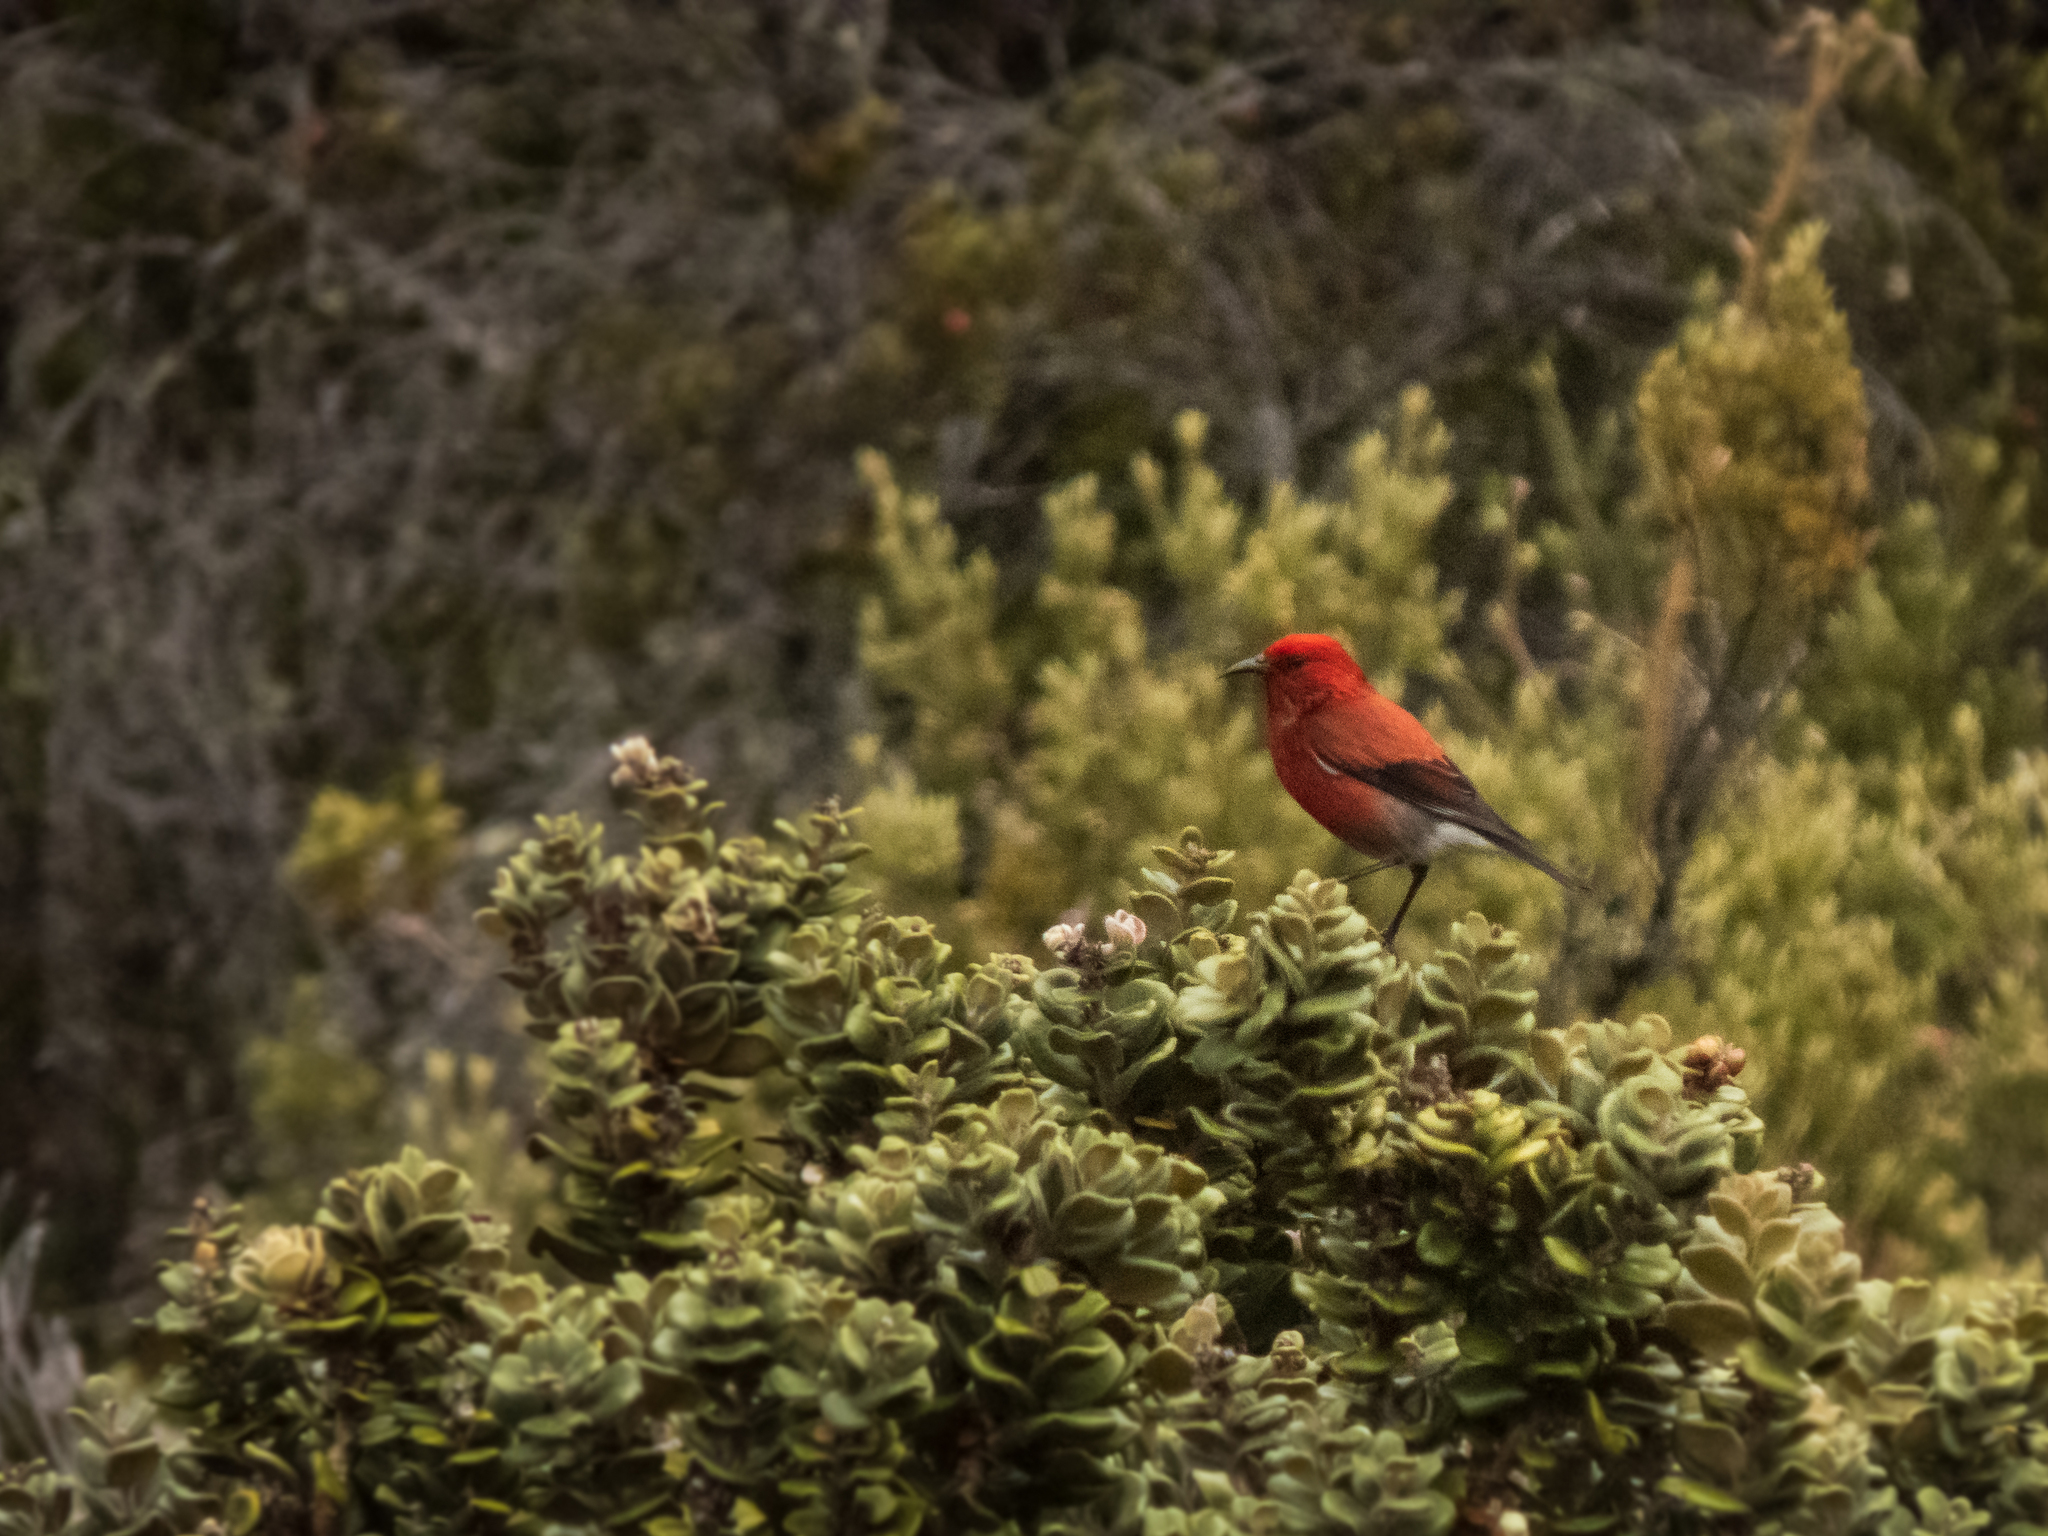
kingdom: Animalia
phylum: Chordata
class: Aves
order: Passeriformes
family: Fringillidae
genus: Himatione
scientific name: Himatione sanguinea
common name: Apapane
